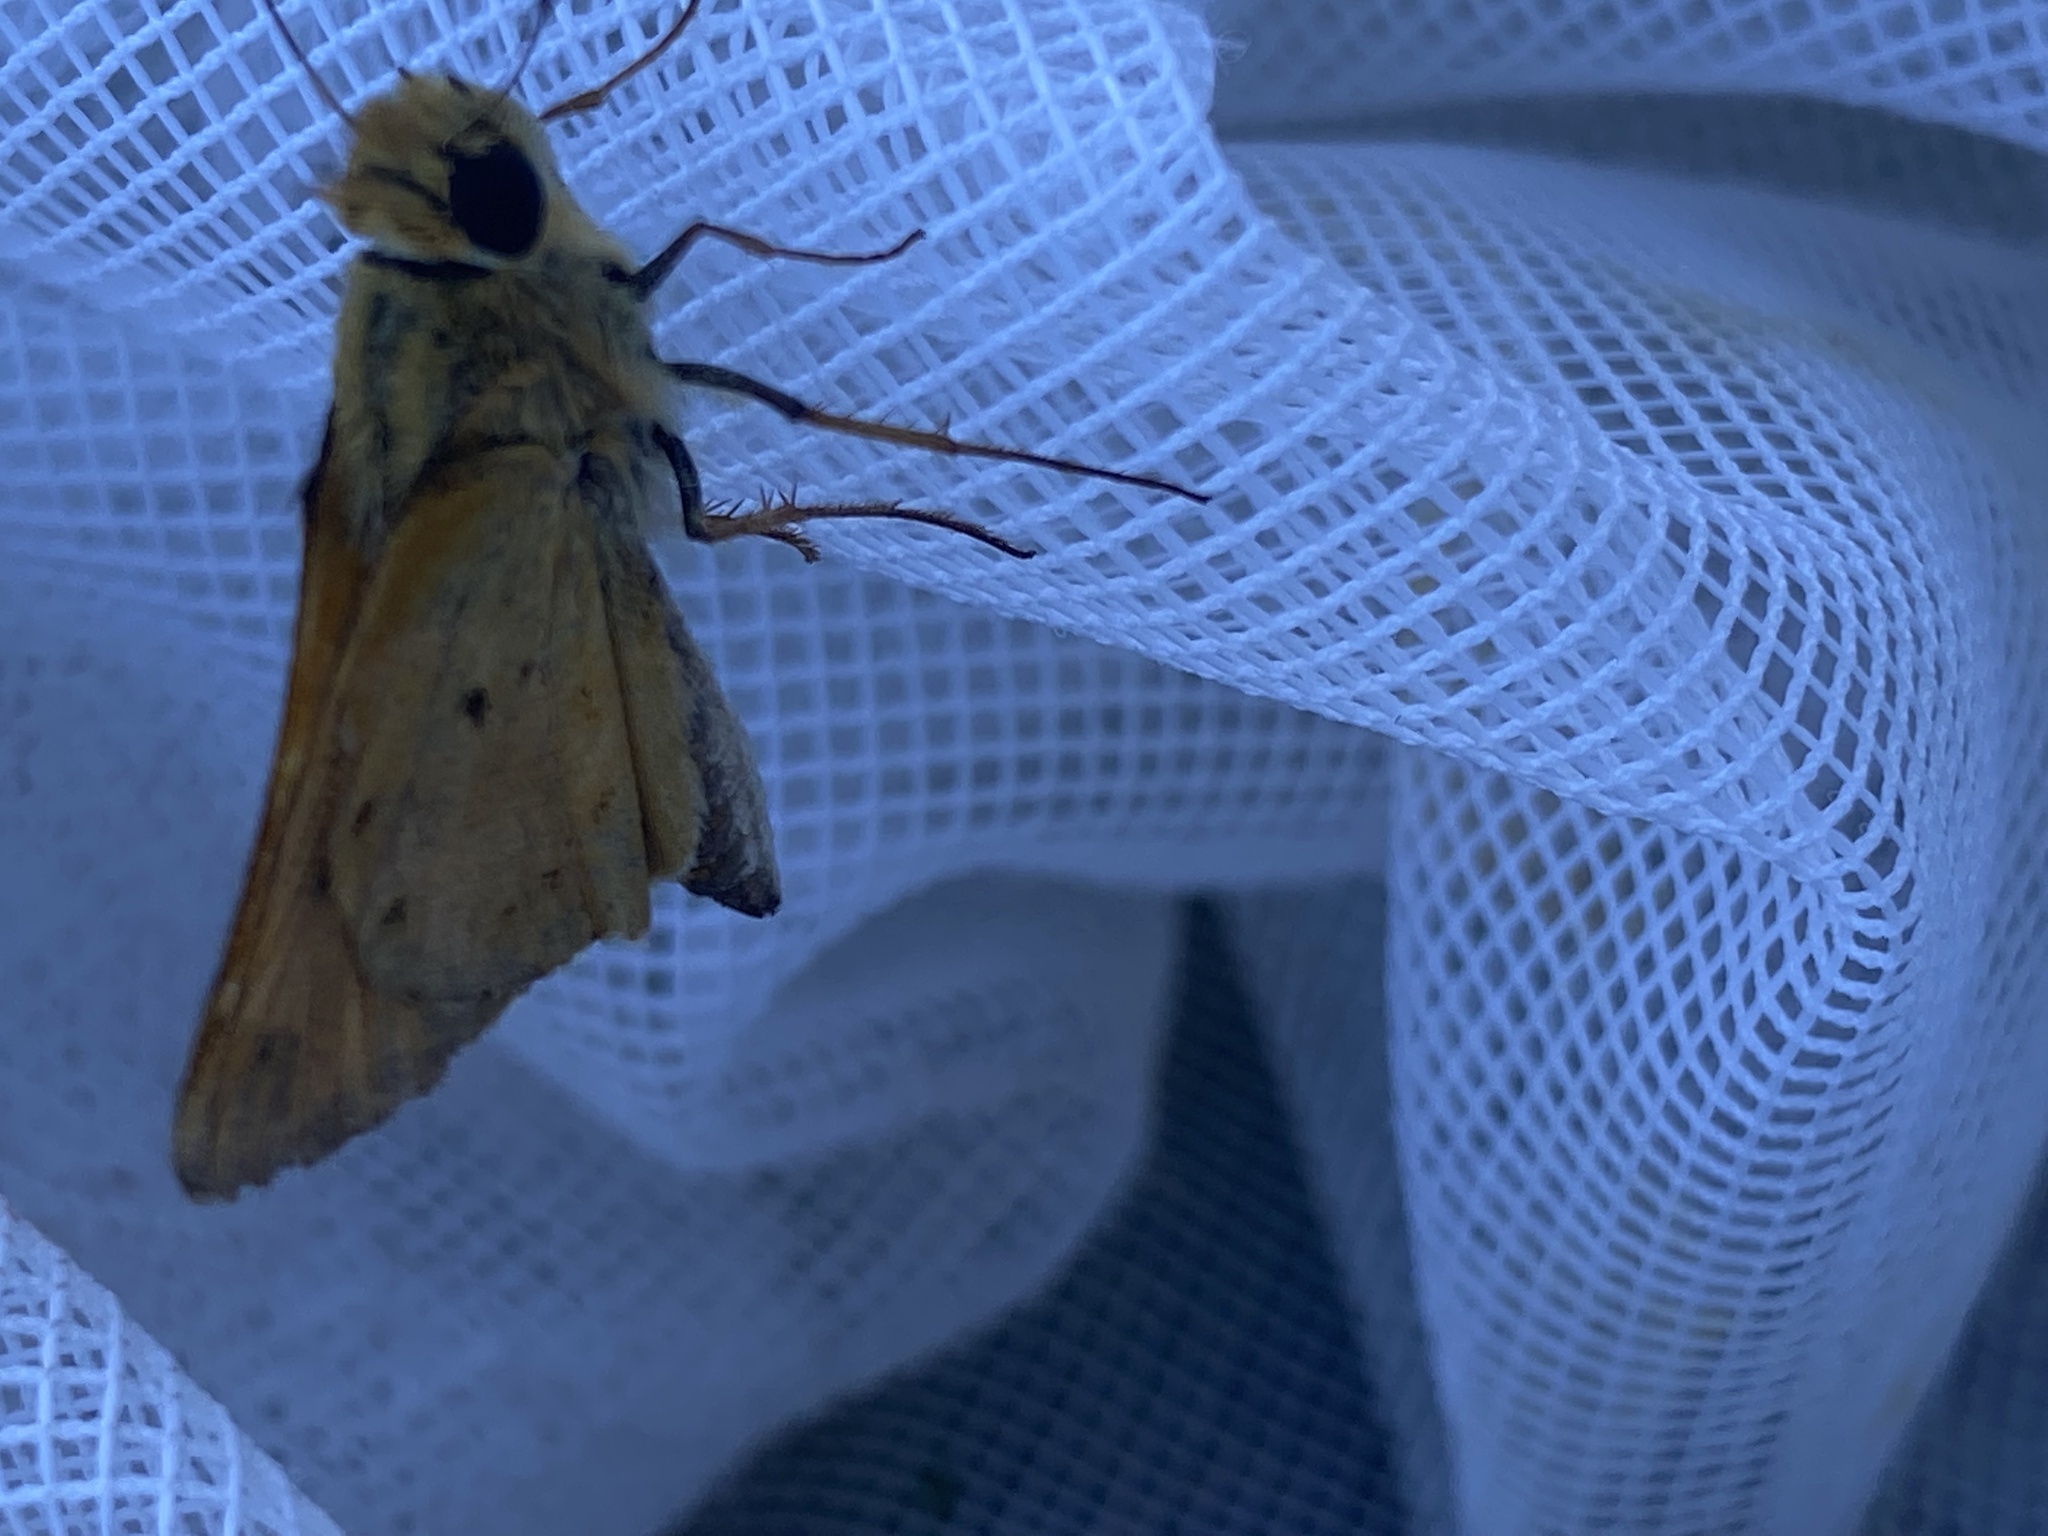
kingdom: Animalia
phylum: Arthropoda
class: Insecta
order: Lepidoptera
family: Hesperiidae
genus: Hylephila
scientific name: Hylephila phyleus
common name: Fiery skipper
